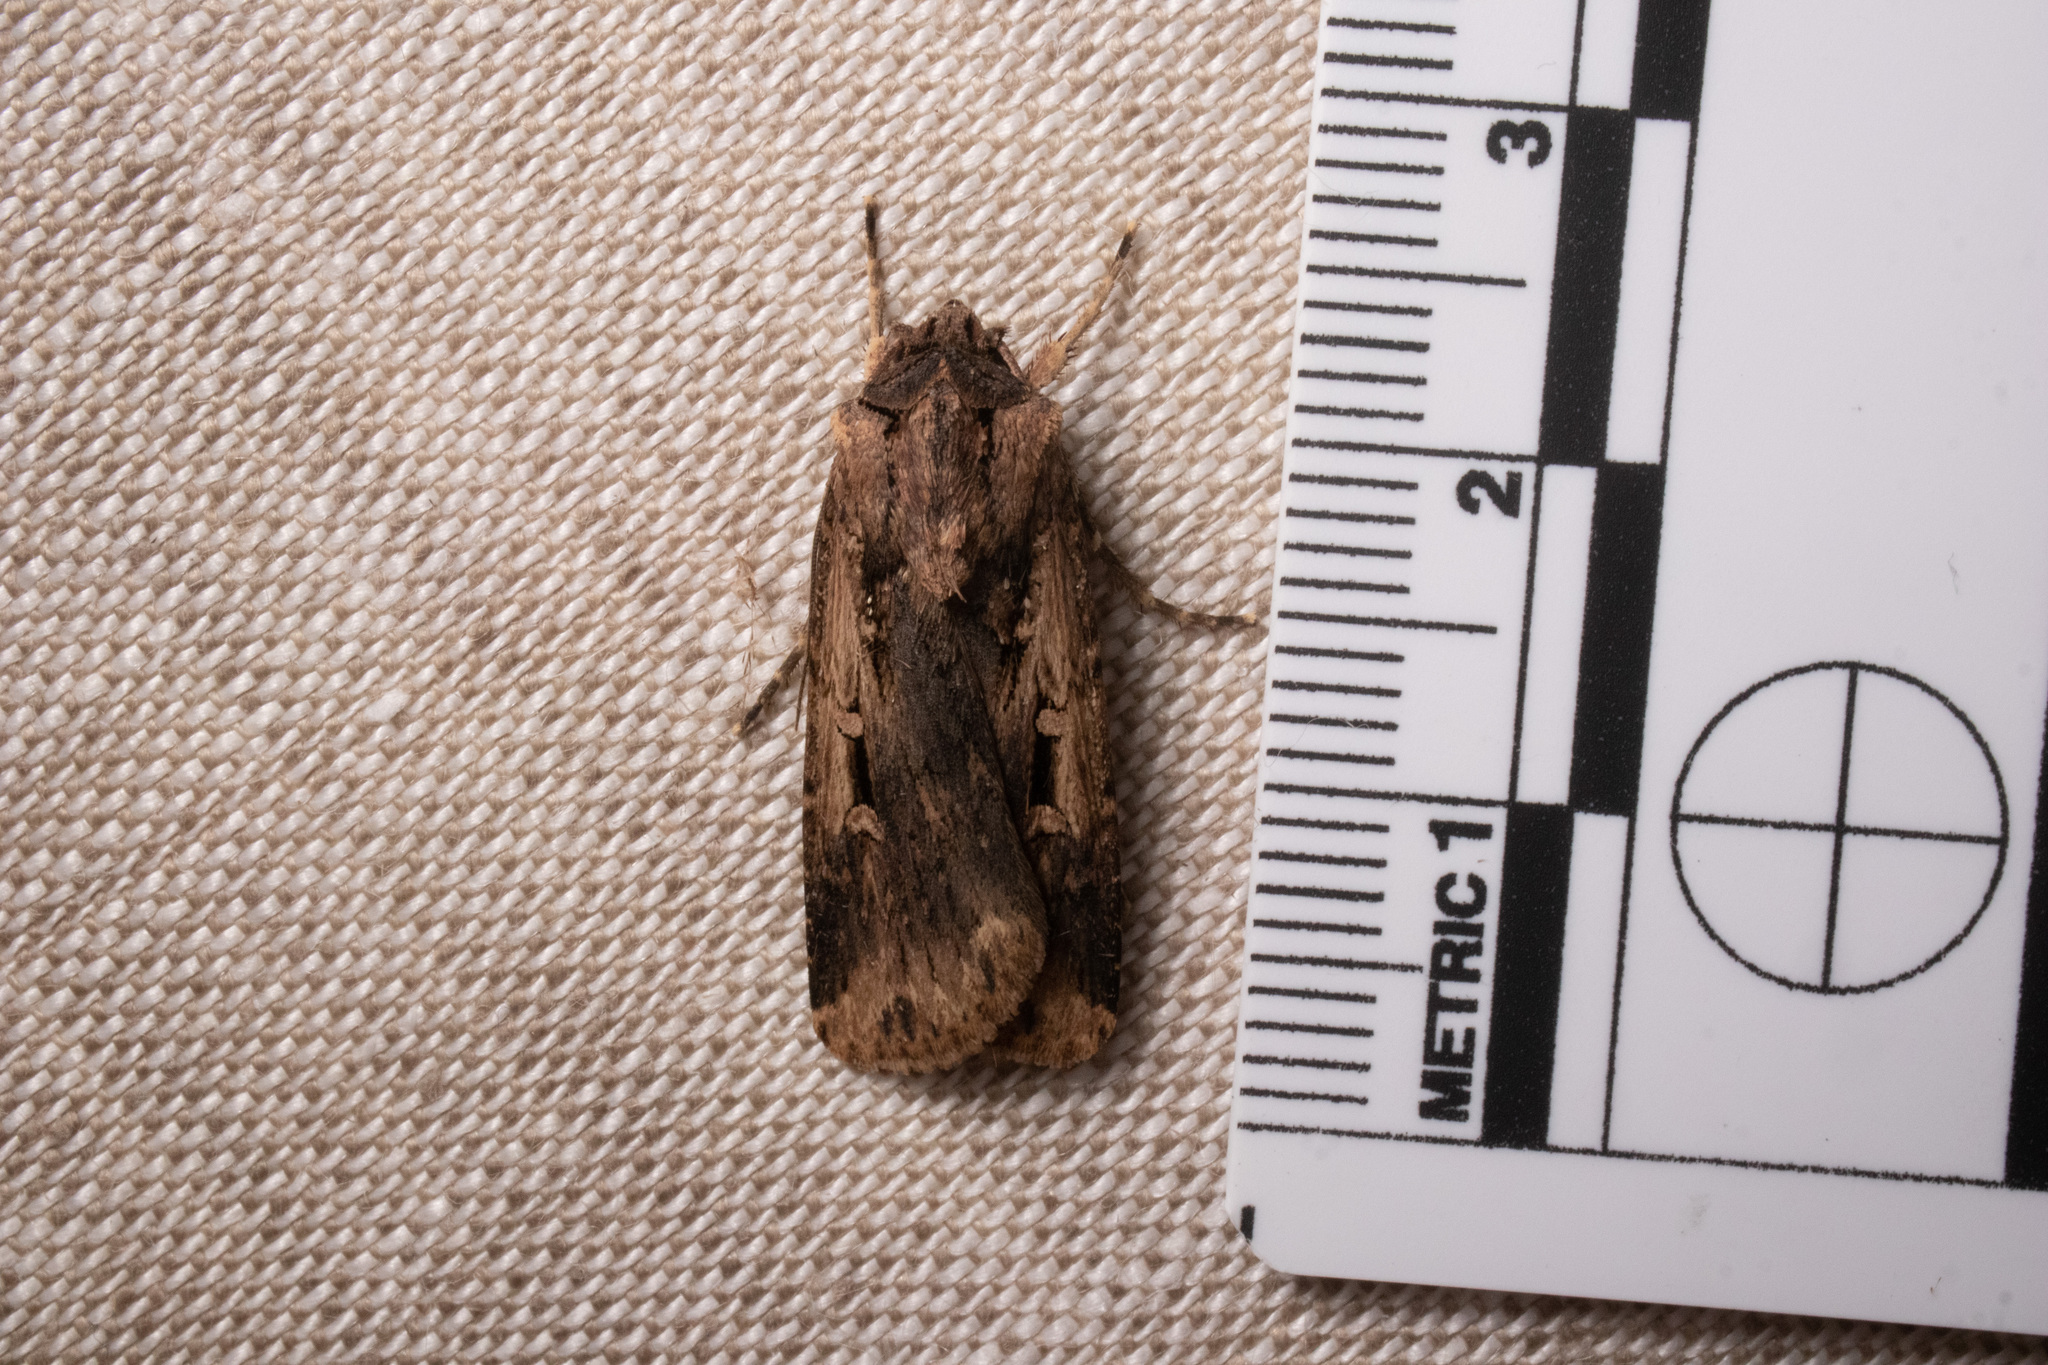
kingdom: Animalia
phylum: Arthropoda
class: Insecta
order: Lepidoptera
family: Noctuidae
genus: Feltia
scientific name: Feltia subterranea
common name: Granulate cutworm
